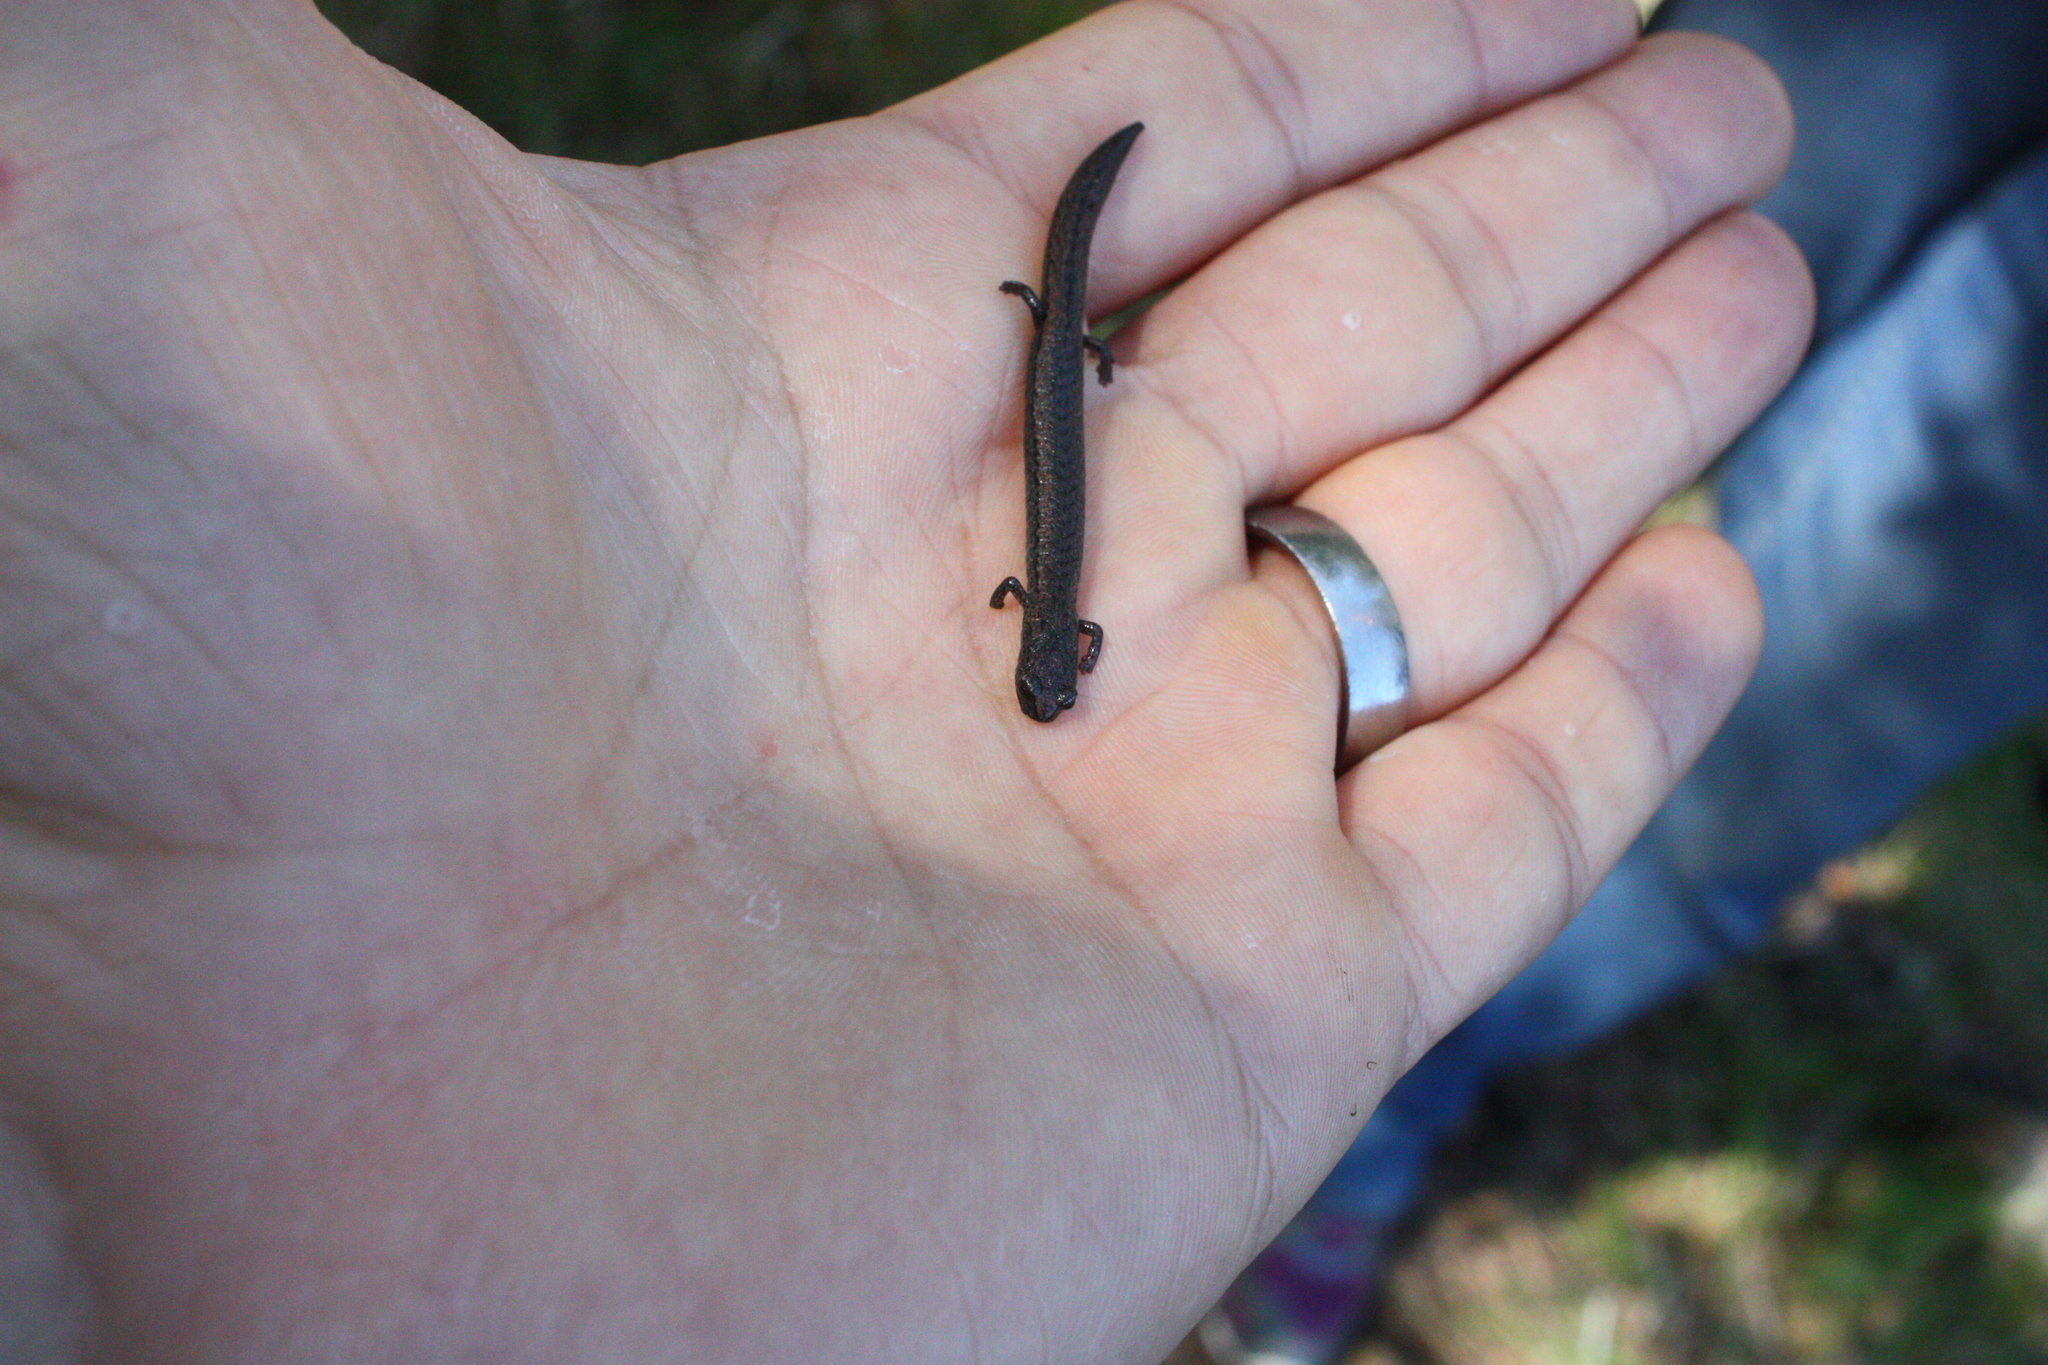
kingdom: Animalia
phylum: Chordata
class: Amphibia
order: Caudata
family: Plethodontidae
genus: Batrachoseps
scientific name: Batrachoseps attenuatus
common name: California slender salamander
